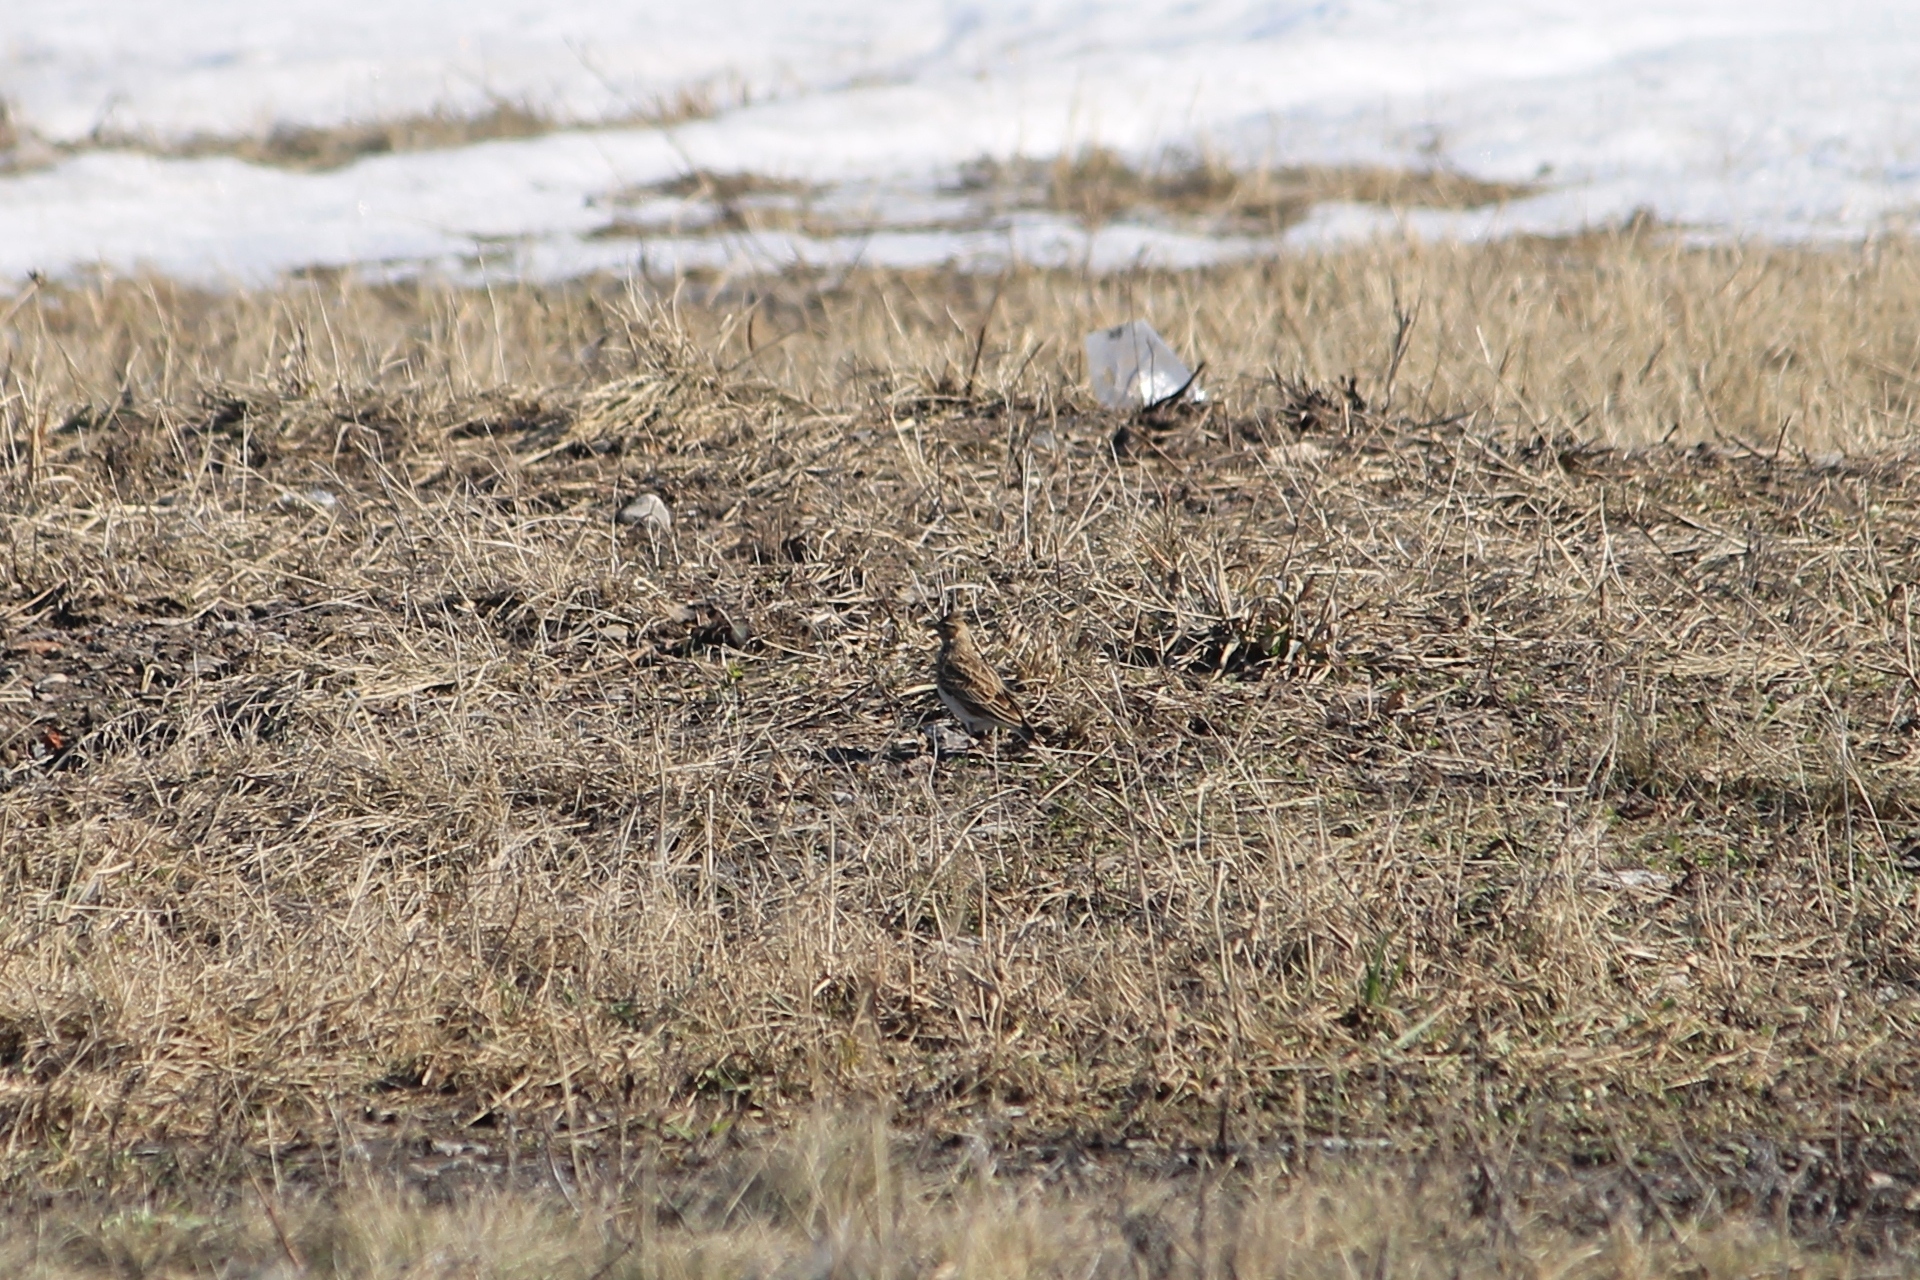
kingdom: Animalia
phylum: Chordata
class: Aves
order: Passeriformes
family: Alaudidae
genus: Alauda
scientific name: Alauda arvensis
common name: Eurasian skylark
